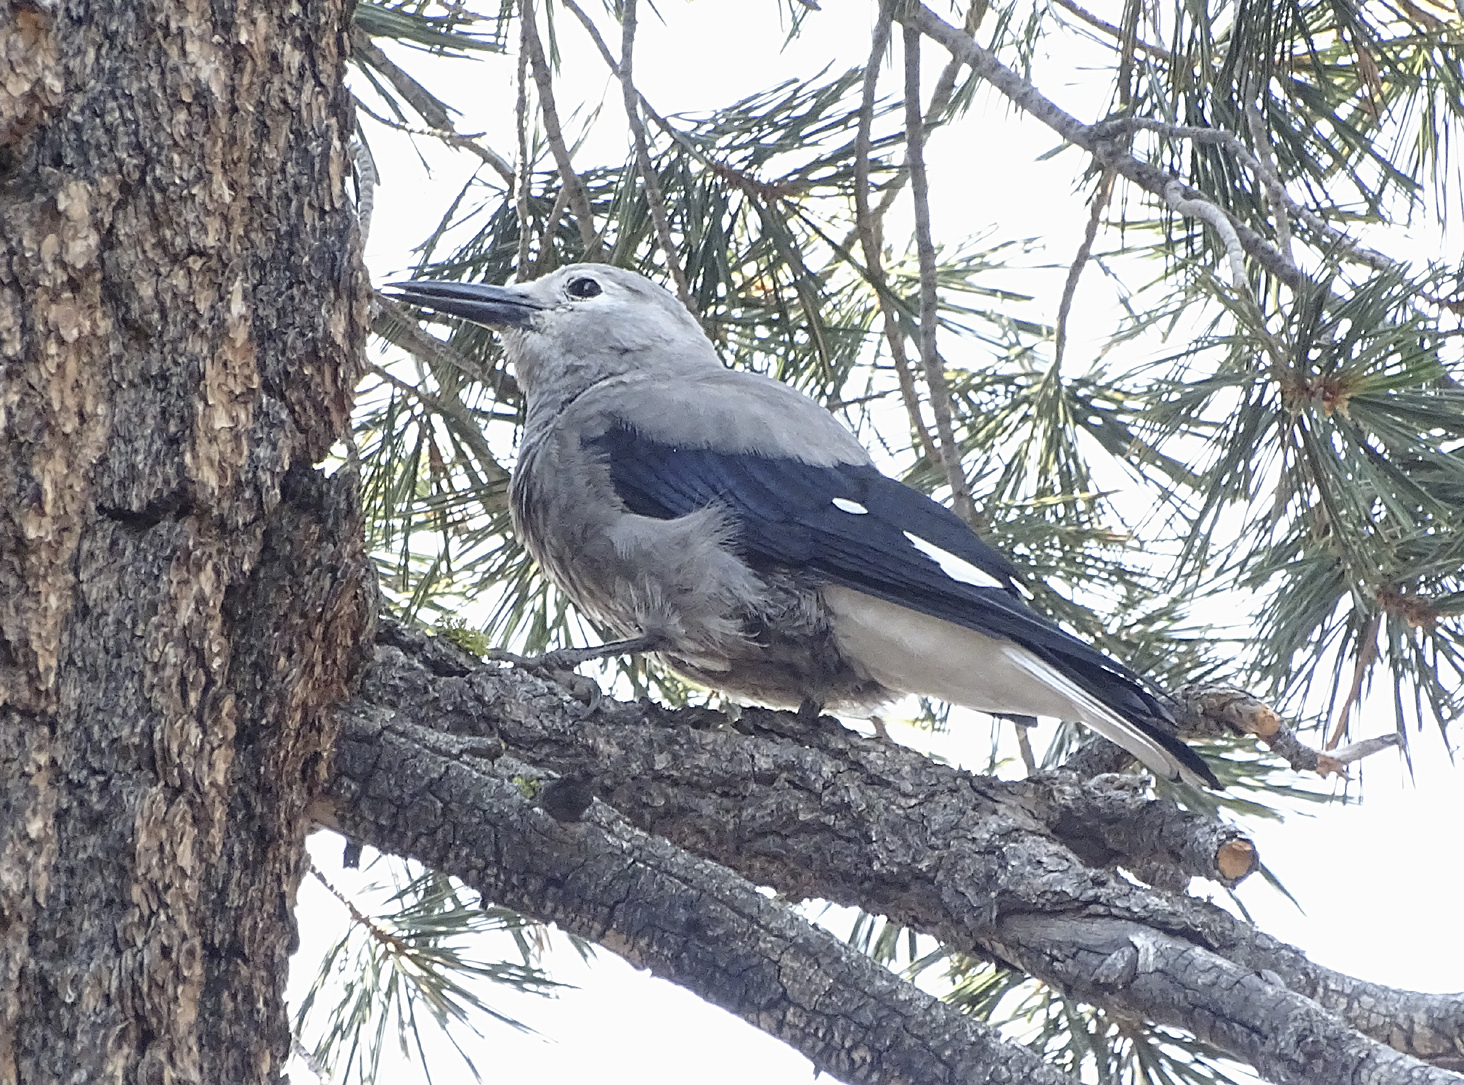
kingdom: Animalia
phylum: Chordata
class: Aves
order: Passeriformes
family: Corvidae
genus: Nucifraga
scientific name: Nucifraga columbiana
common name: Clark's nutcracker
